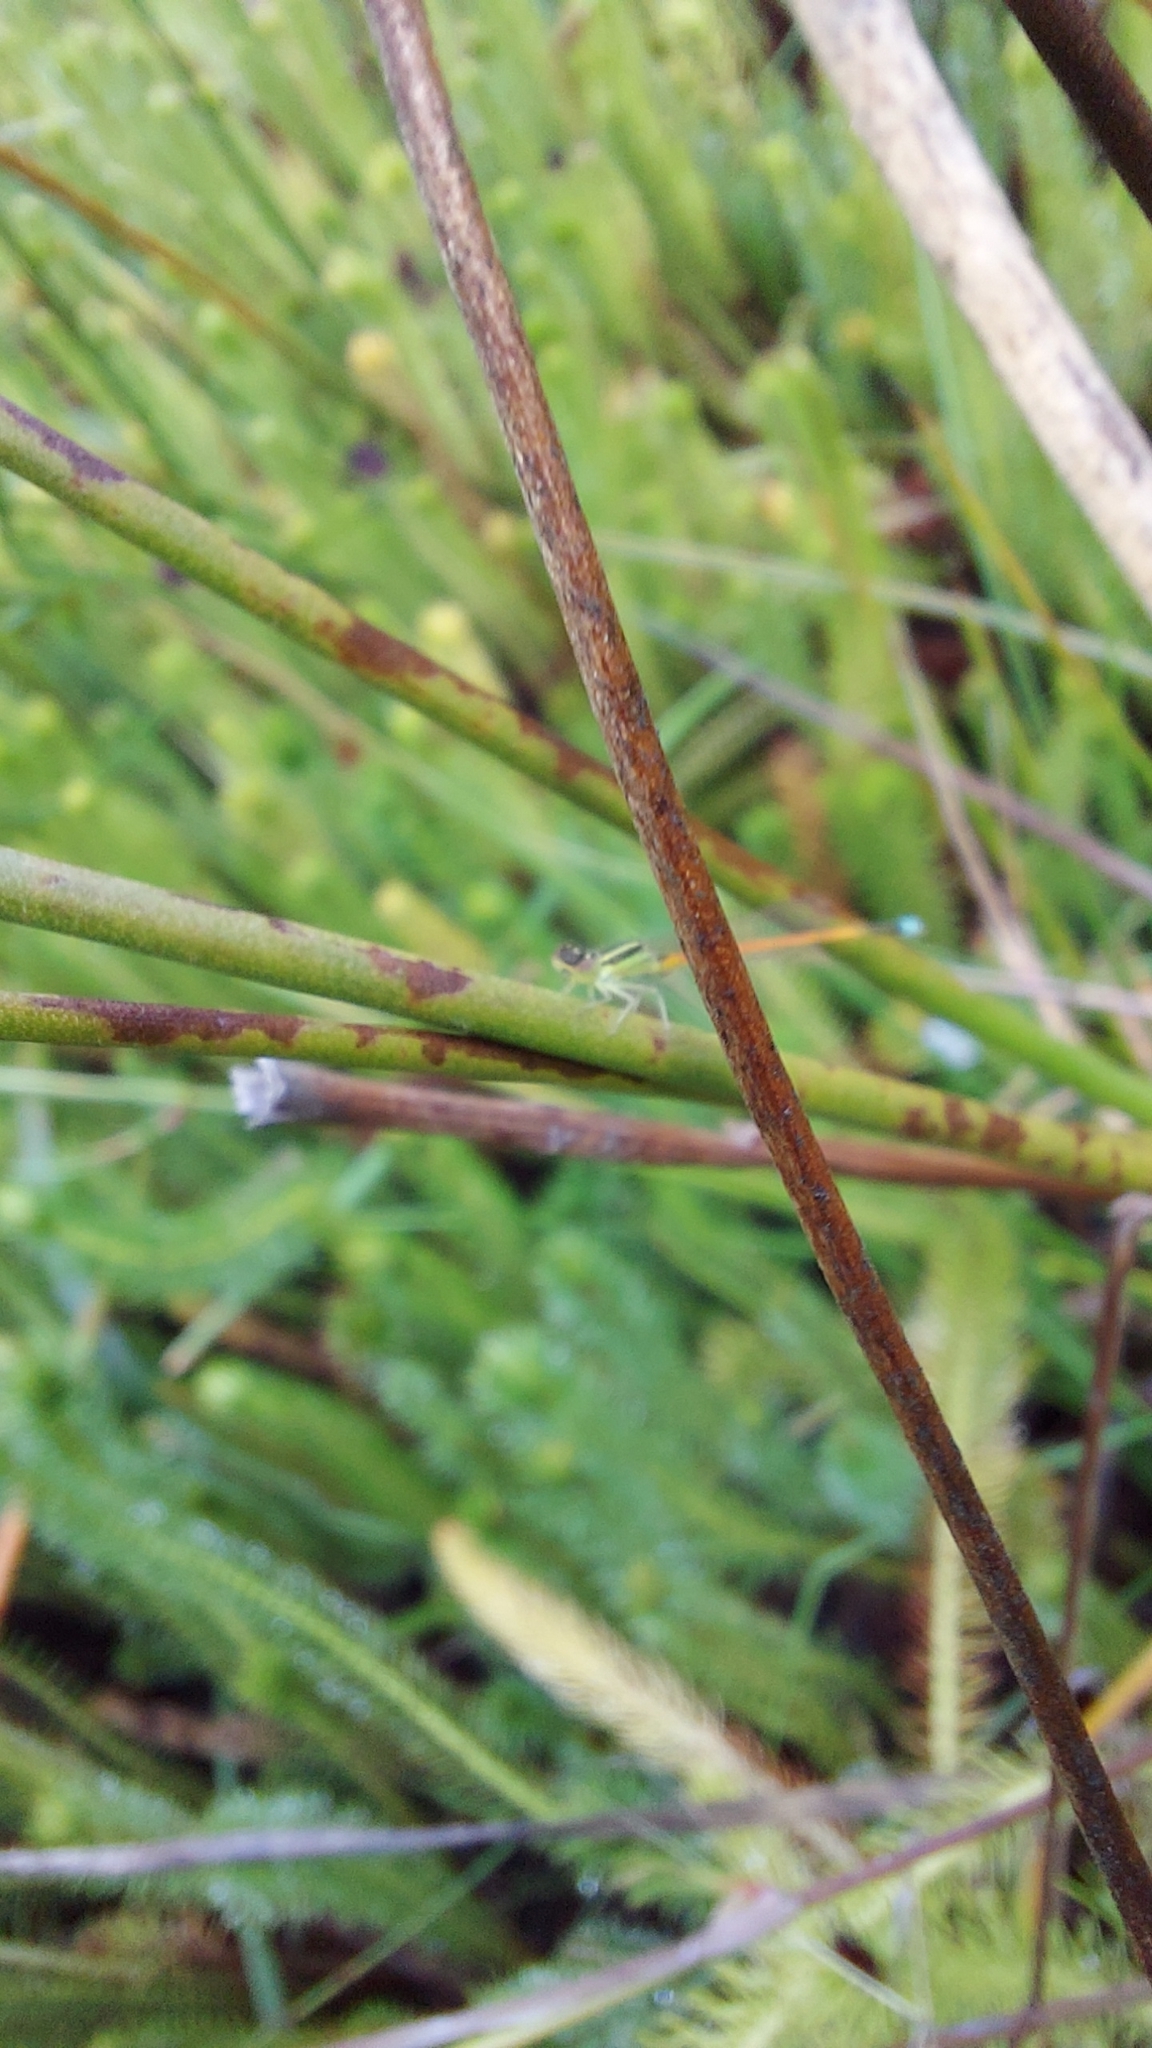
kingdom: Animalia
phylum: Arthropoda
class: Insecta
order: Odonata
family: Coenagrionidae
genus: Ischnura
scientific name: Ischnura aurora
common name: Gossamer damselfly
